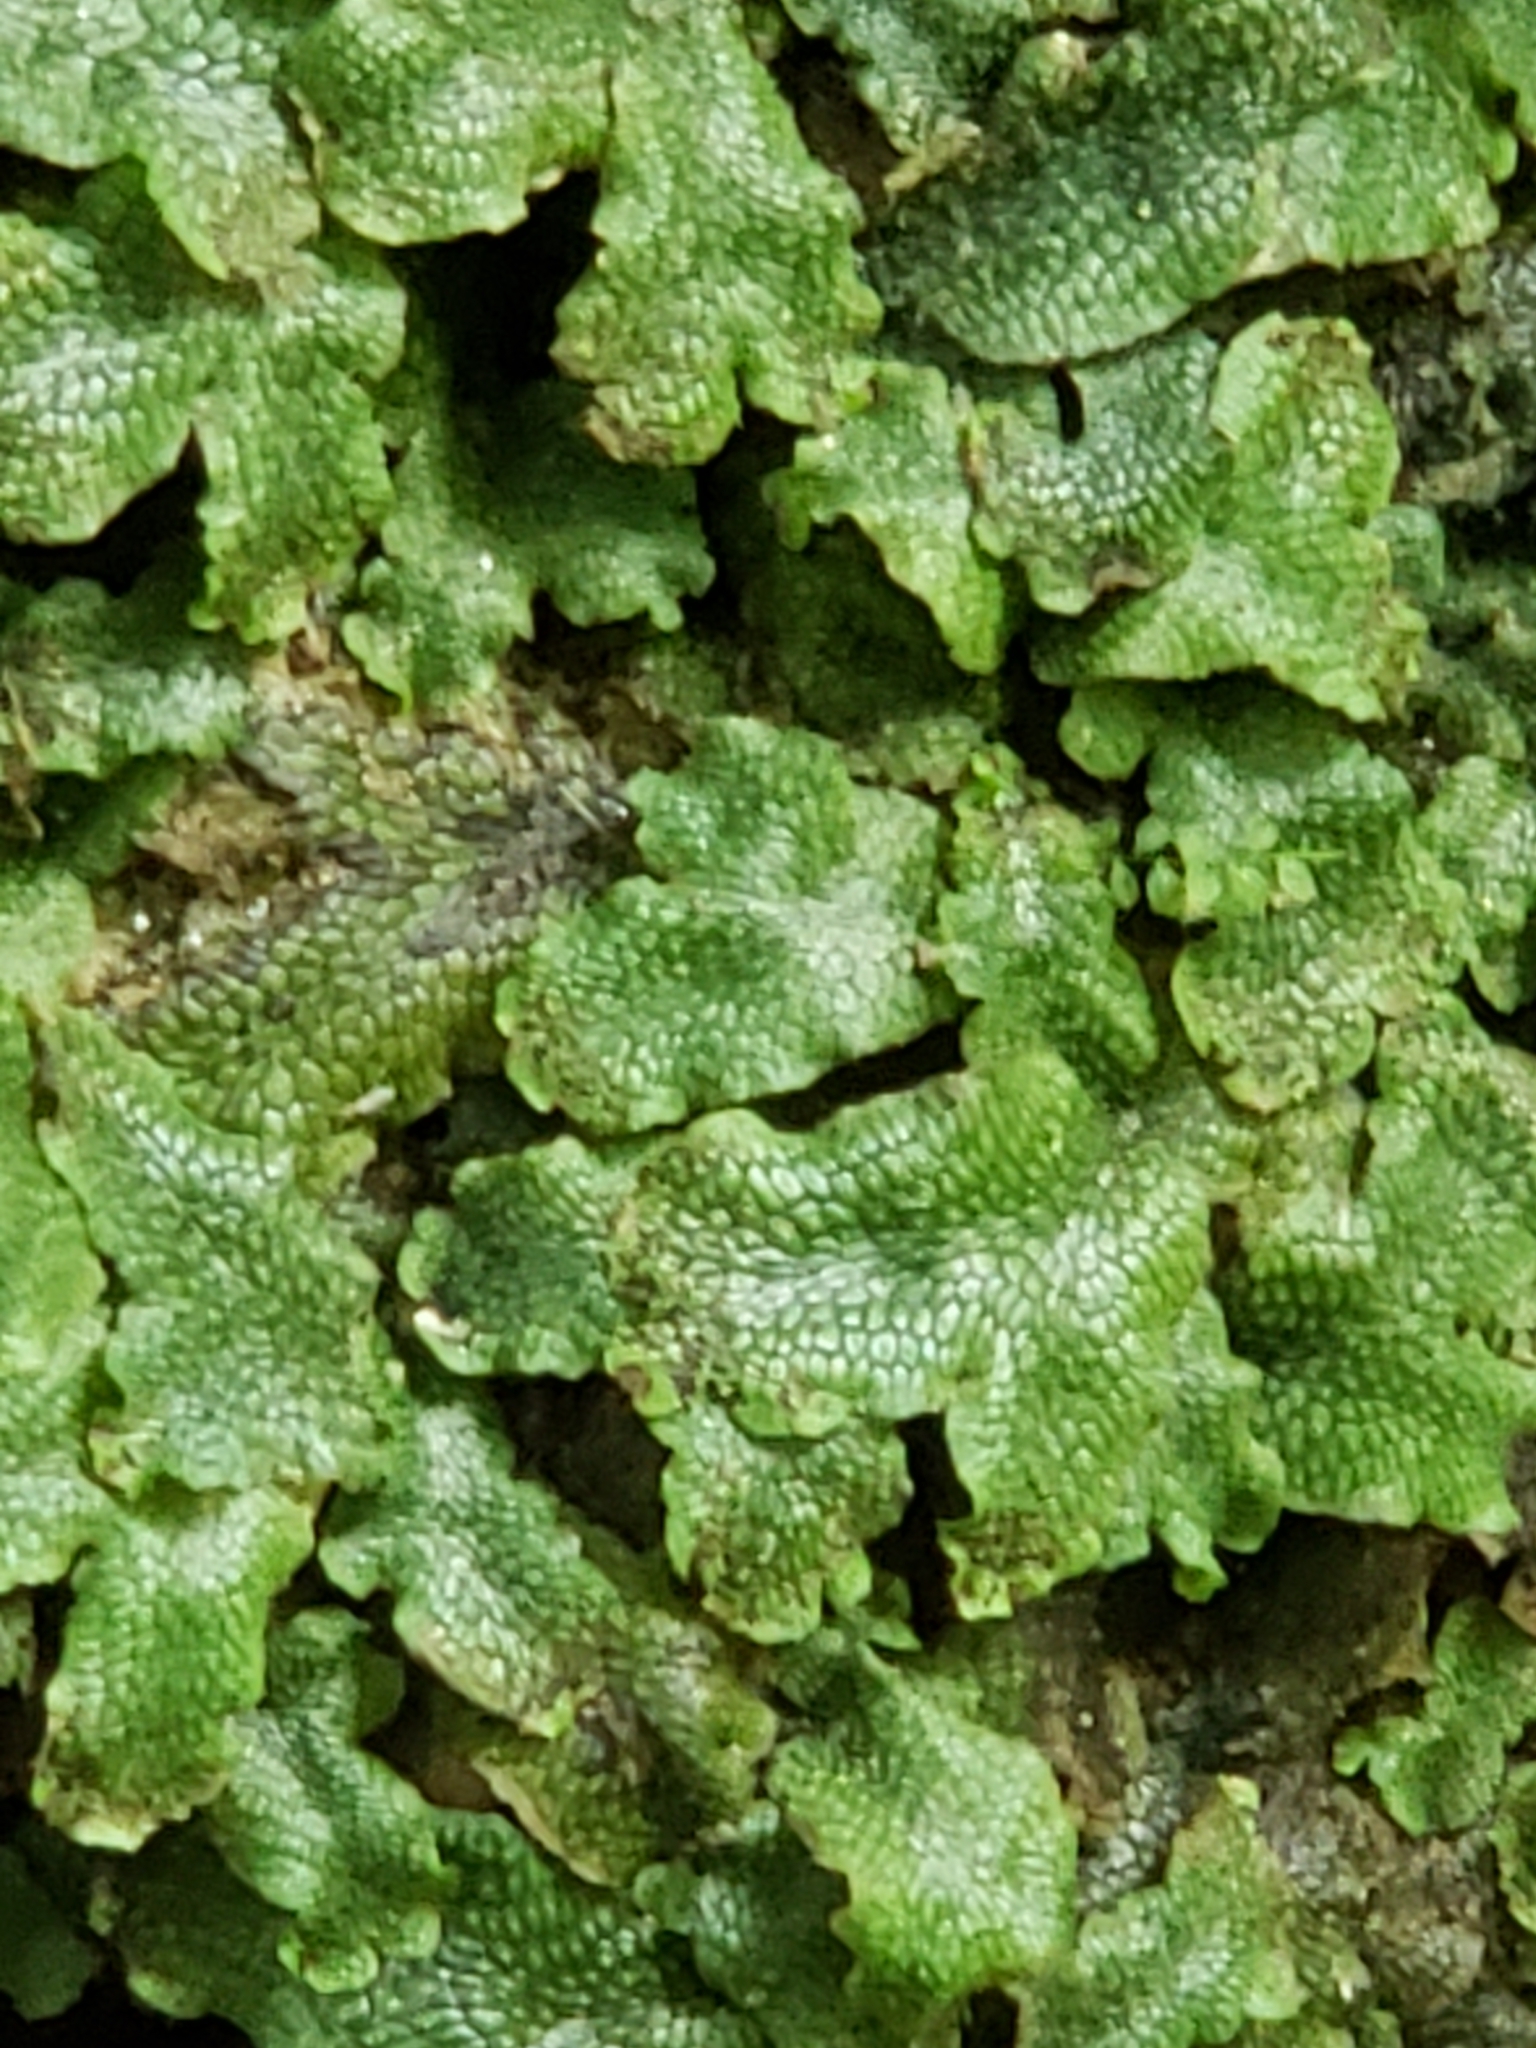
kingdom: Plantae
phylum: Marchantiophyta
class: Marchantiopsida
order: Marchantiales
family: Conocephalaceae
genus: Conocephalum
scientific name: Conocephalum salebrosum
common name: Cat-tongue liverwort
